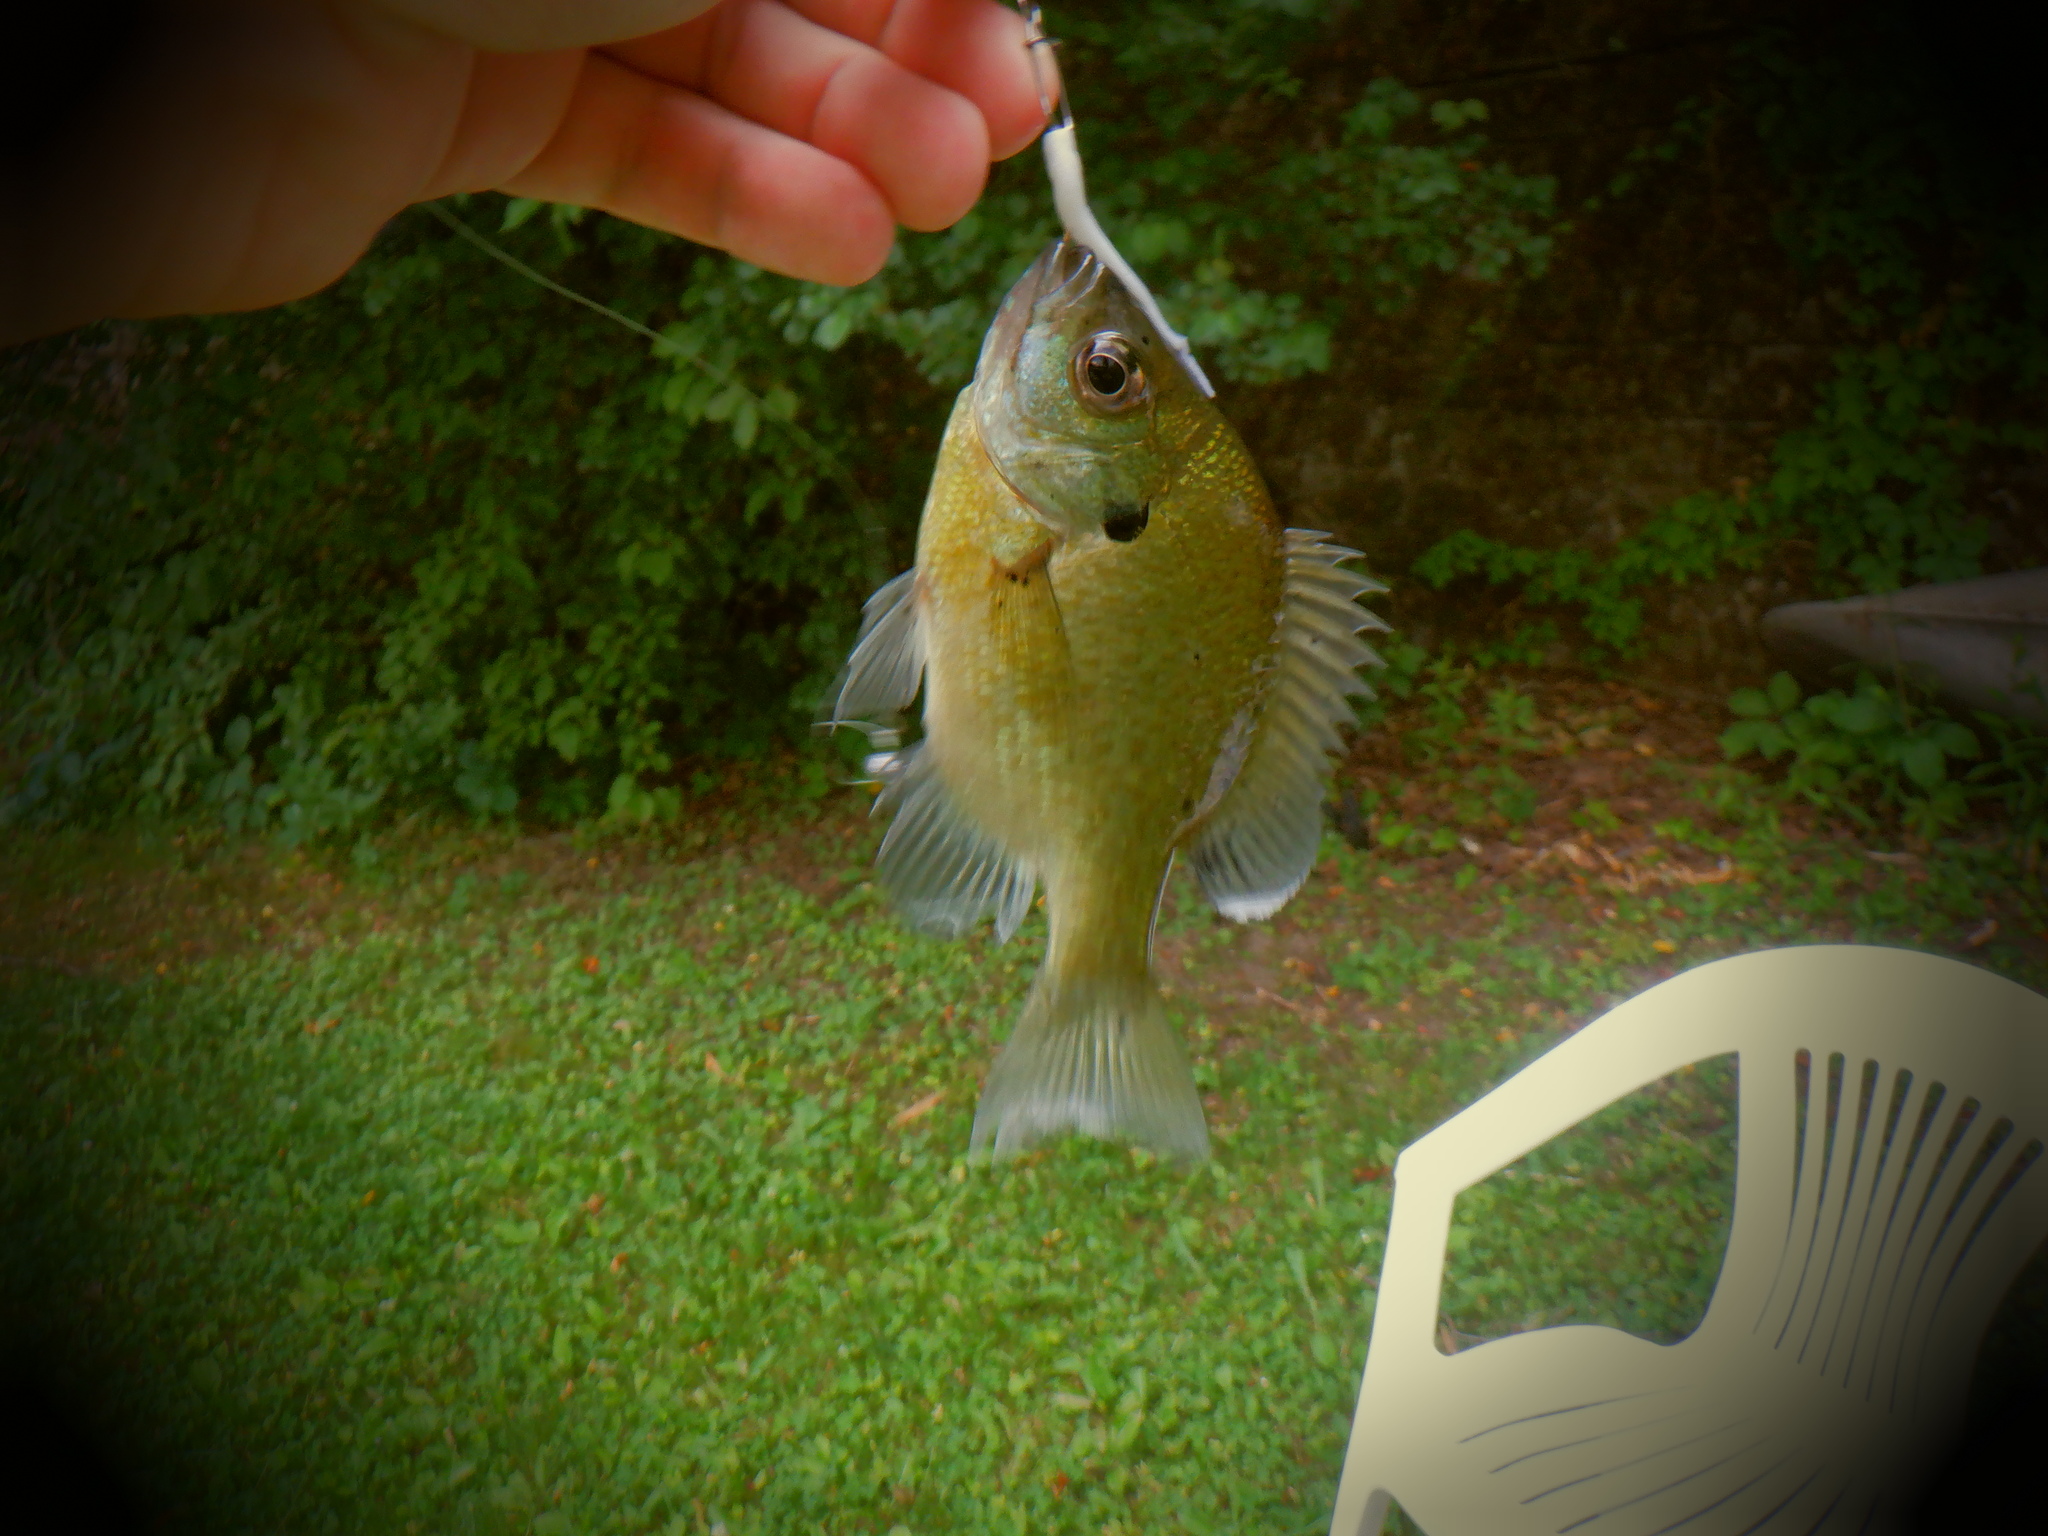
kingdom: Animalia
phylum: Chordata
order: Perciformes
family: Centrarchidae
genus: Lepomis
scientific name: Lepomis macrochirus
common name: Bluegill
